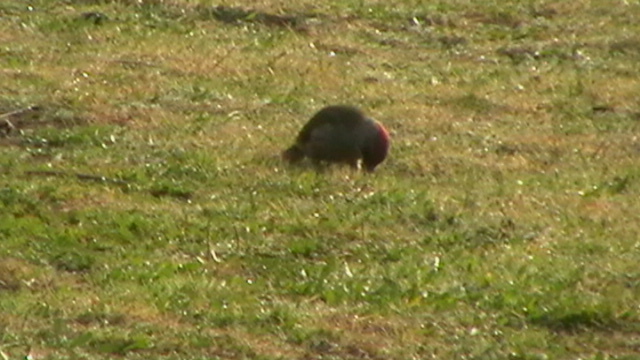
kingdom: Animalia
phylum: Chordata
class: Aves
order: Piciformes
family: Picidae
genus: Picus
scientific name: Picus sharpei
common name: Iberian green woodpecker
